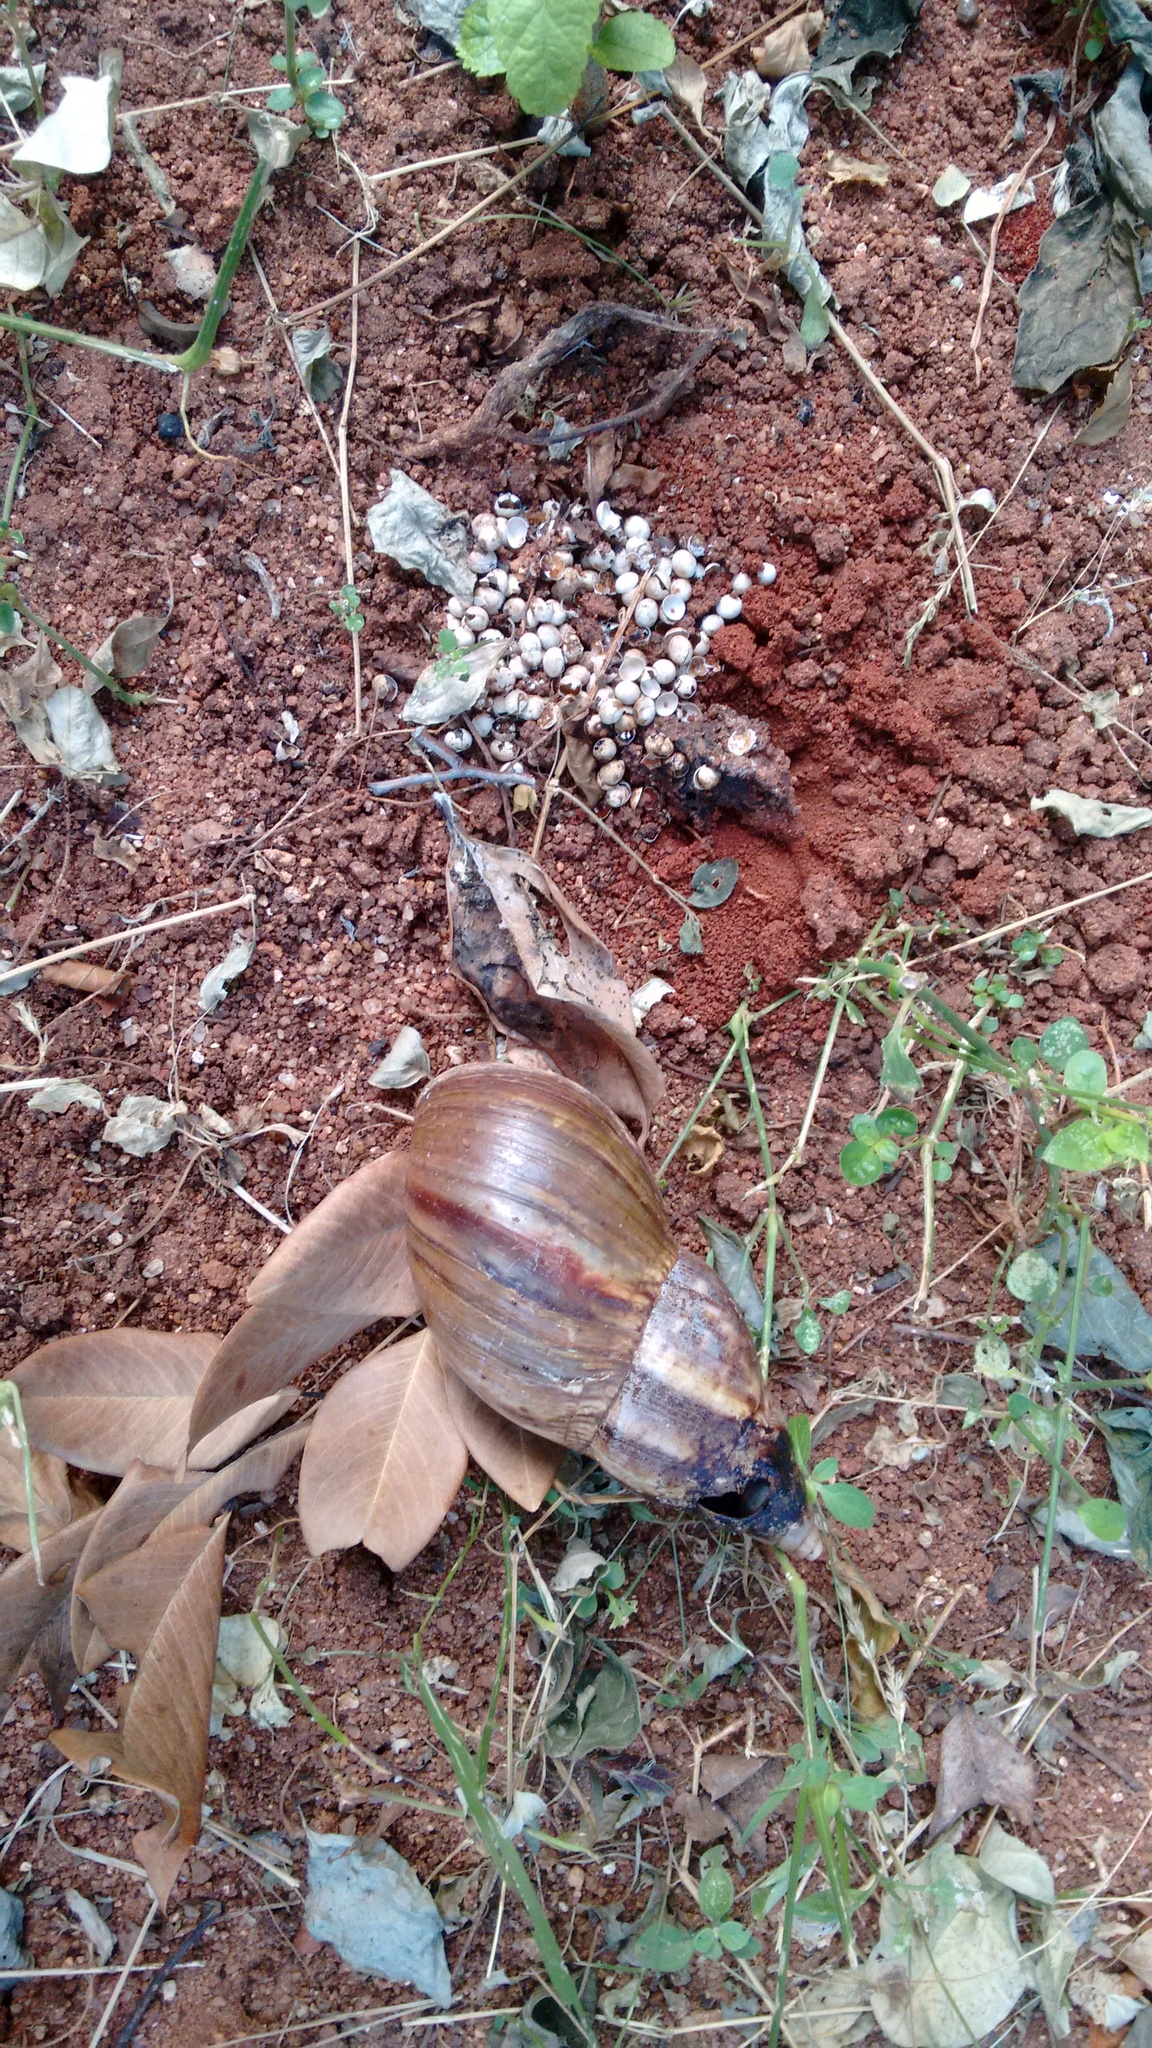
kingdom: Animalia
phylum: Mollusca
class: Gastropoda
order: Stylommatophora
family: Achatinidae
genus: Lissachatina
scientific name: Lissachatina fulica
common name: Giant african snail
